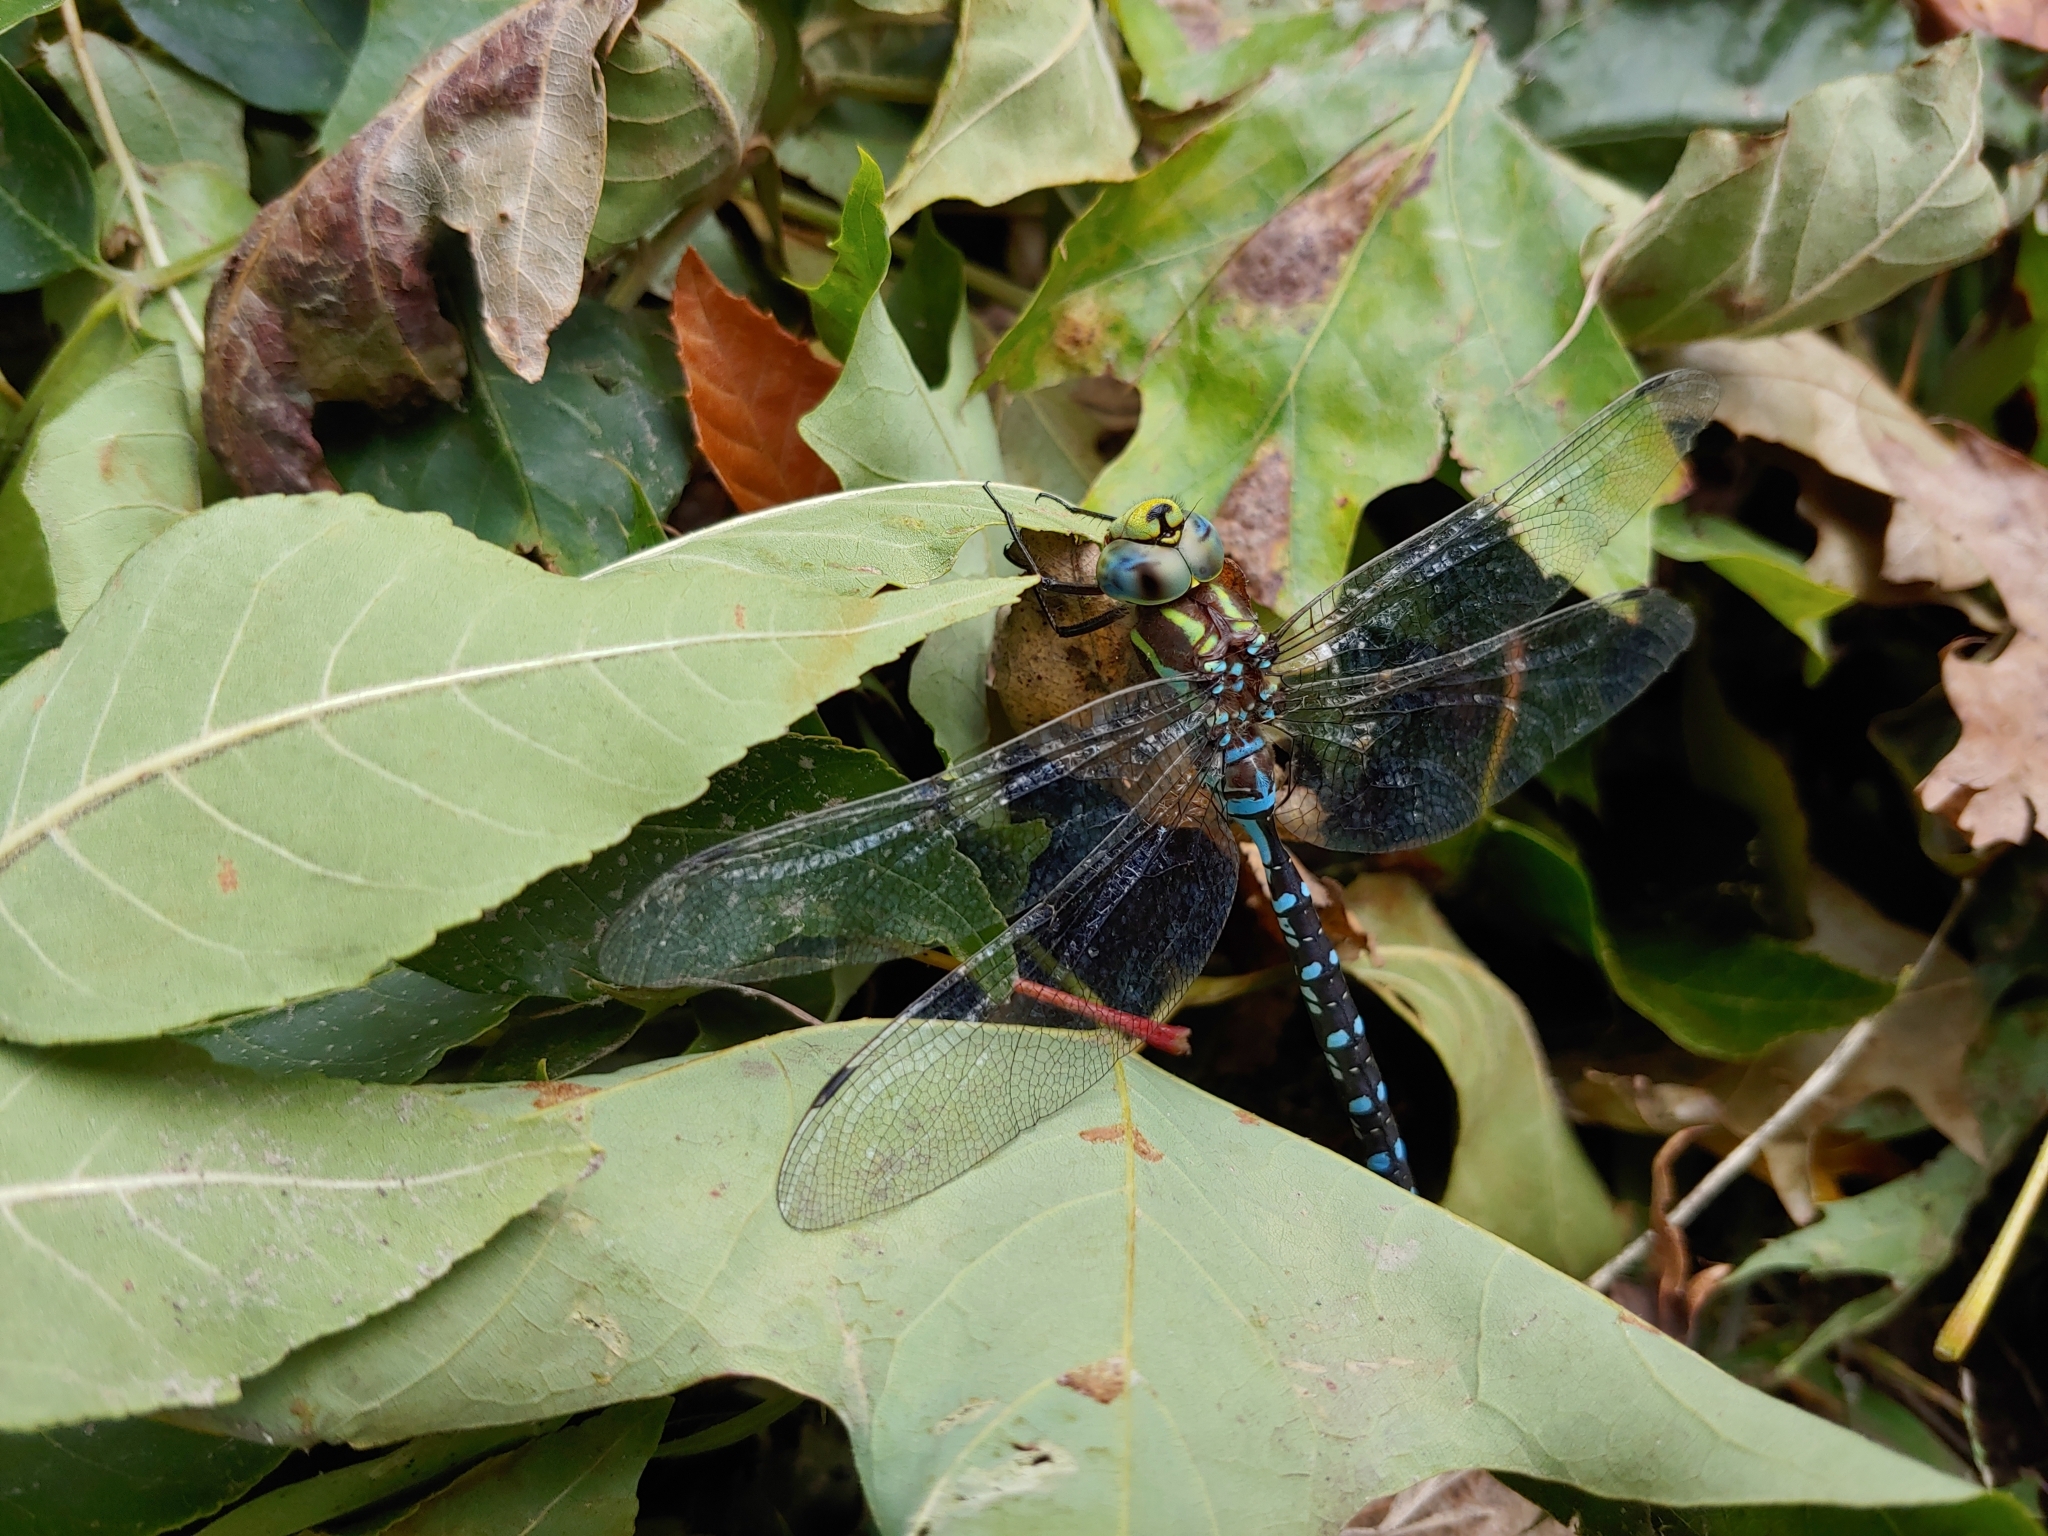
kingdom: Animalia
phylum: Arthropoda
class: Insecta
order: Odonata
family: Aeshnidae
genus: Aeshna
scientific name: Aeshna constricta
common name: Lance-tipped darner
